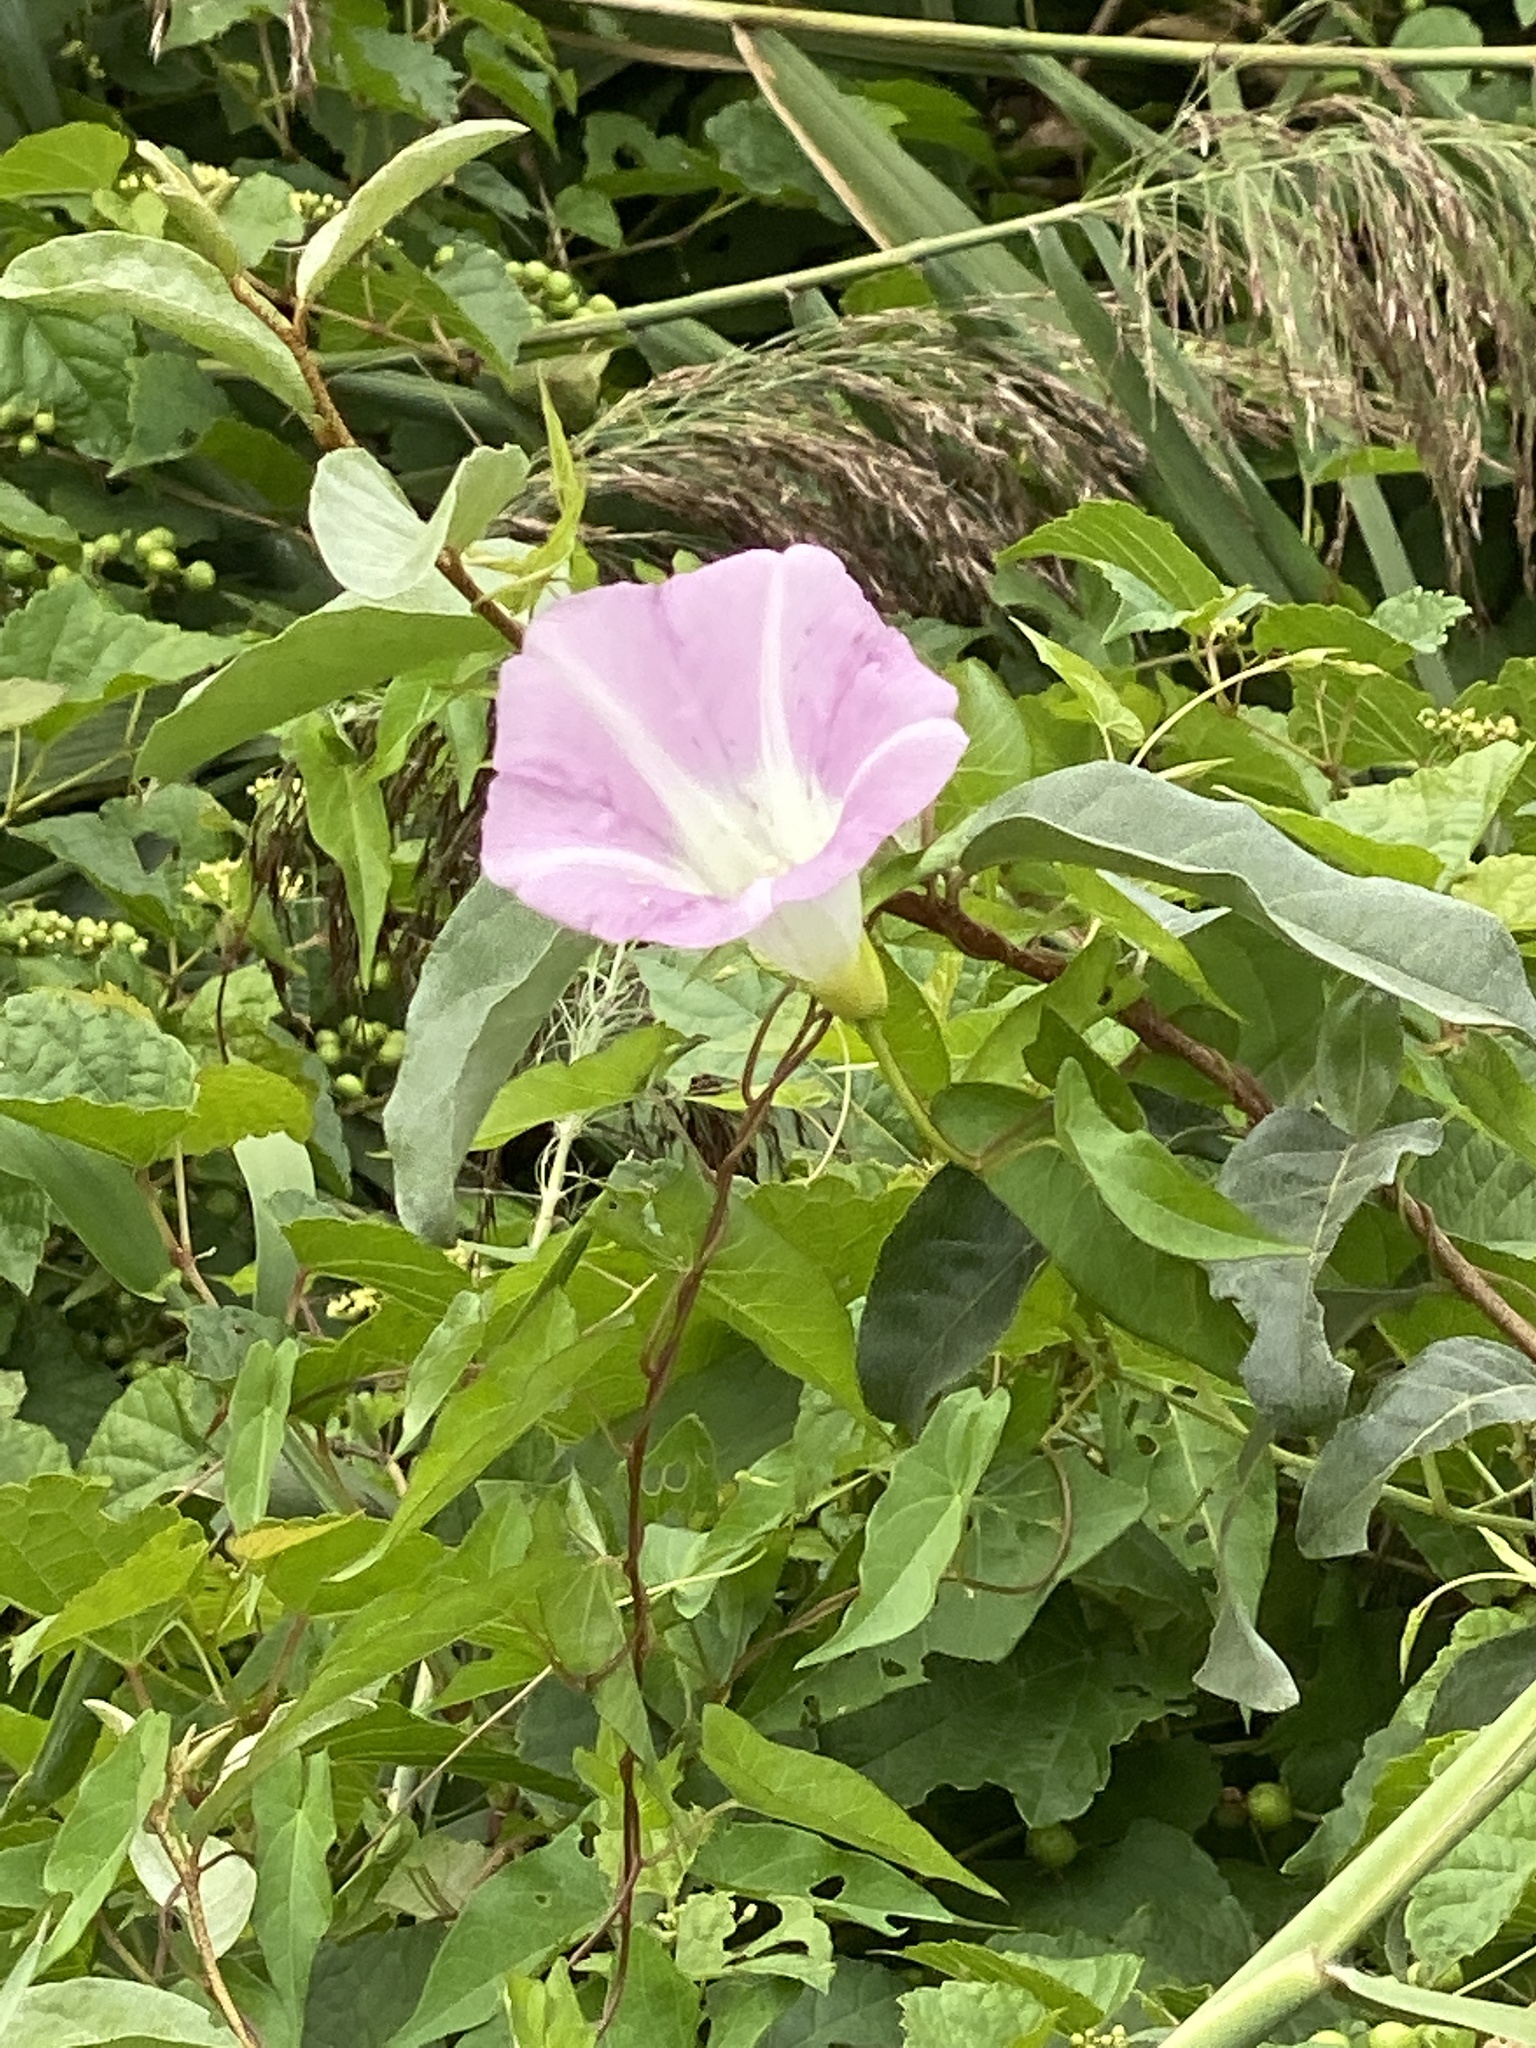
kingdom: Plantae
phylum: Tracheophyta
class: Magnoliopsida
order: Solanales
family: Convolvulaceae
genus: Calystegia
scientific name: Calystegia sepium
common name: Hedge bindweed
